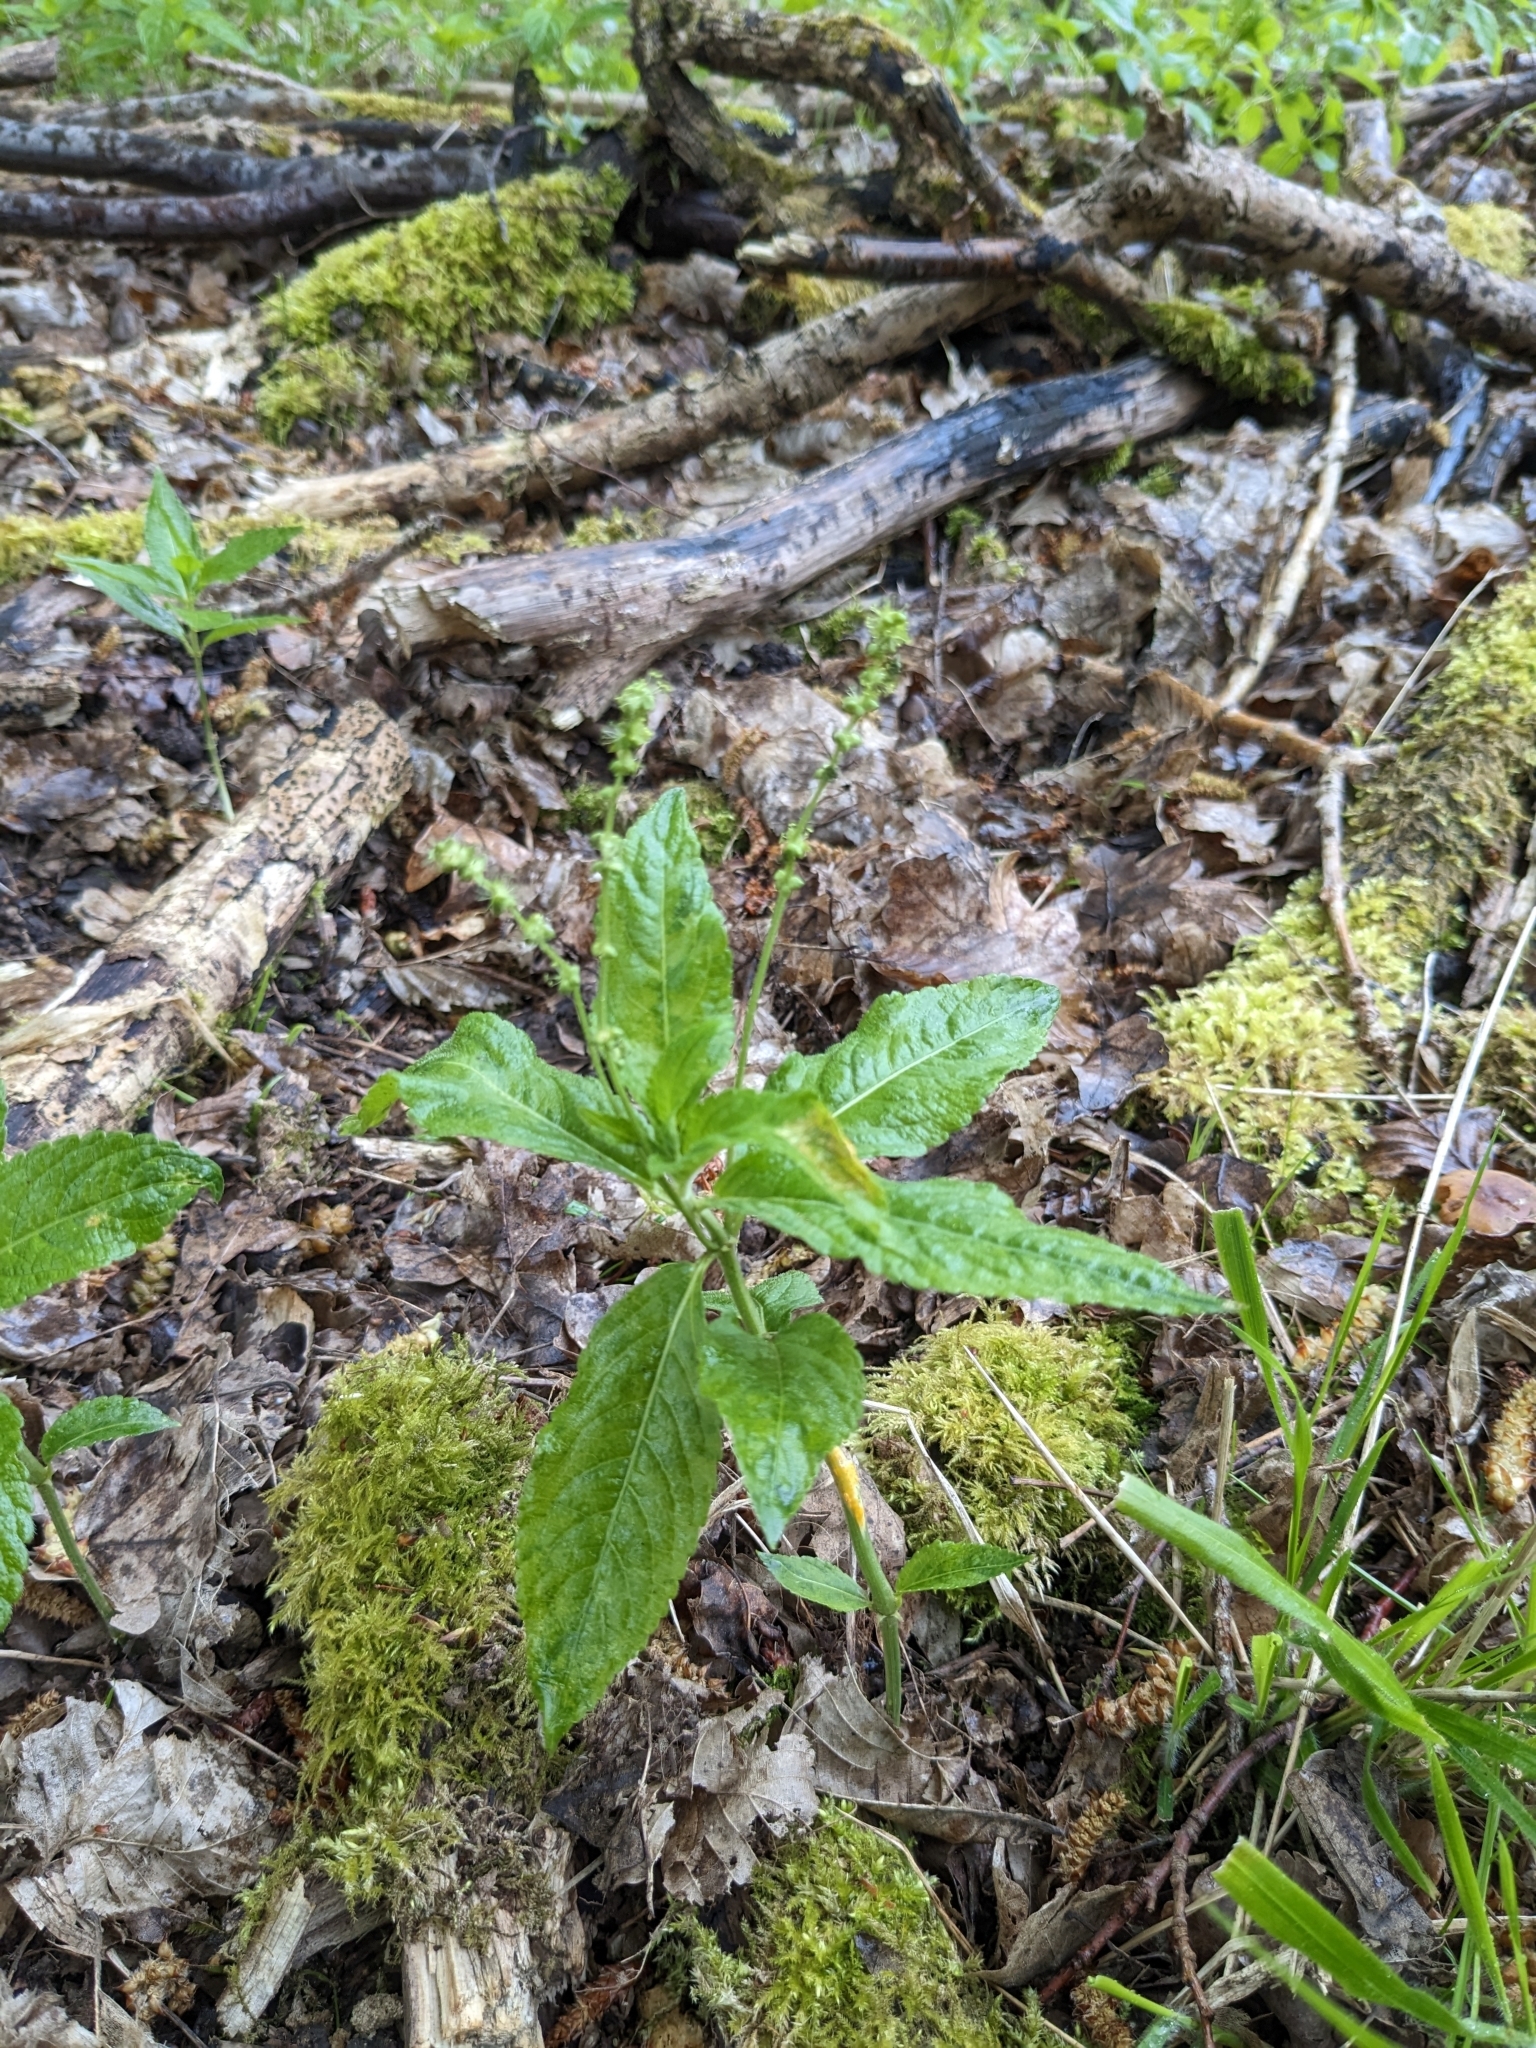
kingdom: Plantae
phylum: Tracheophyta
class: Magnoliopsida
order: Malpighiales
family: Euphorbiaceae
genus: Mercurialis
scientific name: Mercurialis perennis
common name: Dog mercury
